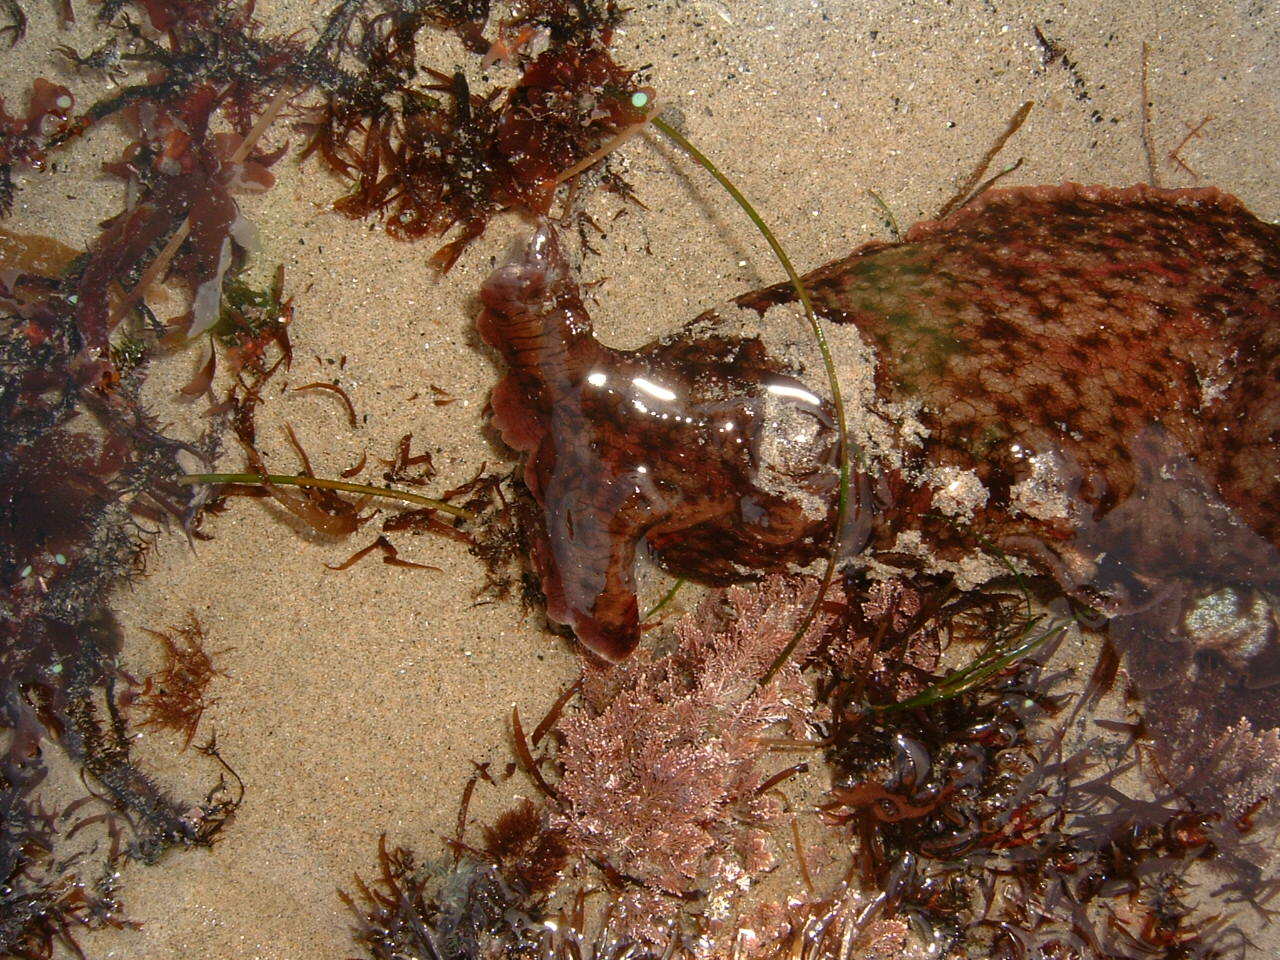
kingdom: Animalia
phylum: Mollusca
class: Gastropoda
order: Aplysiida
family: Aplysiidae
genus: Aplysia
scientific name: Aplysia californica
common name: California seahare
